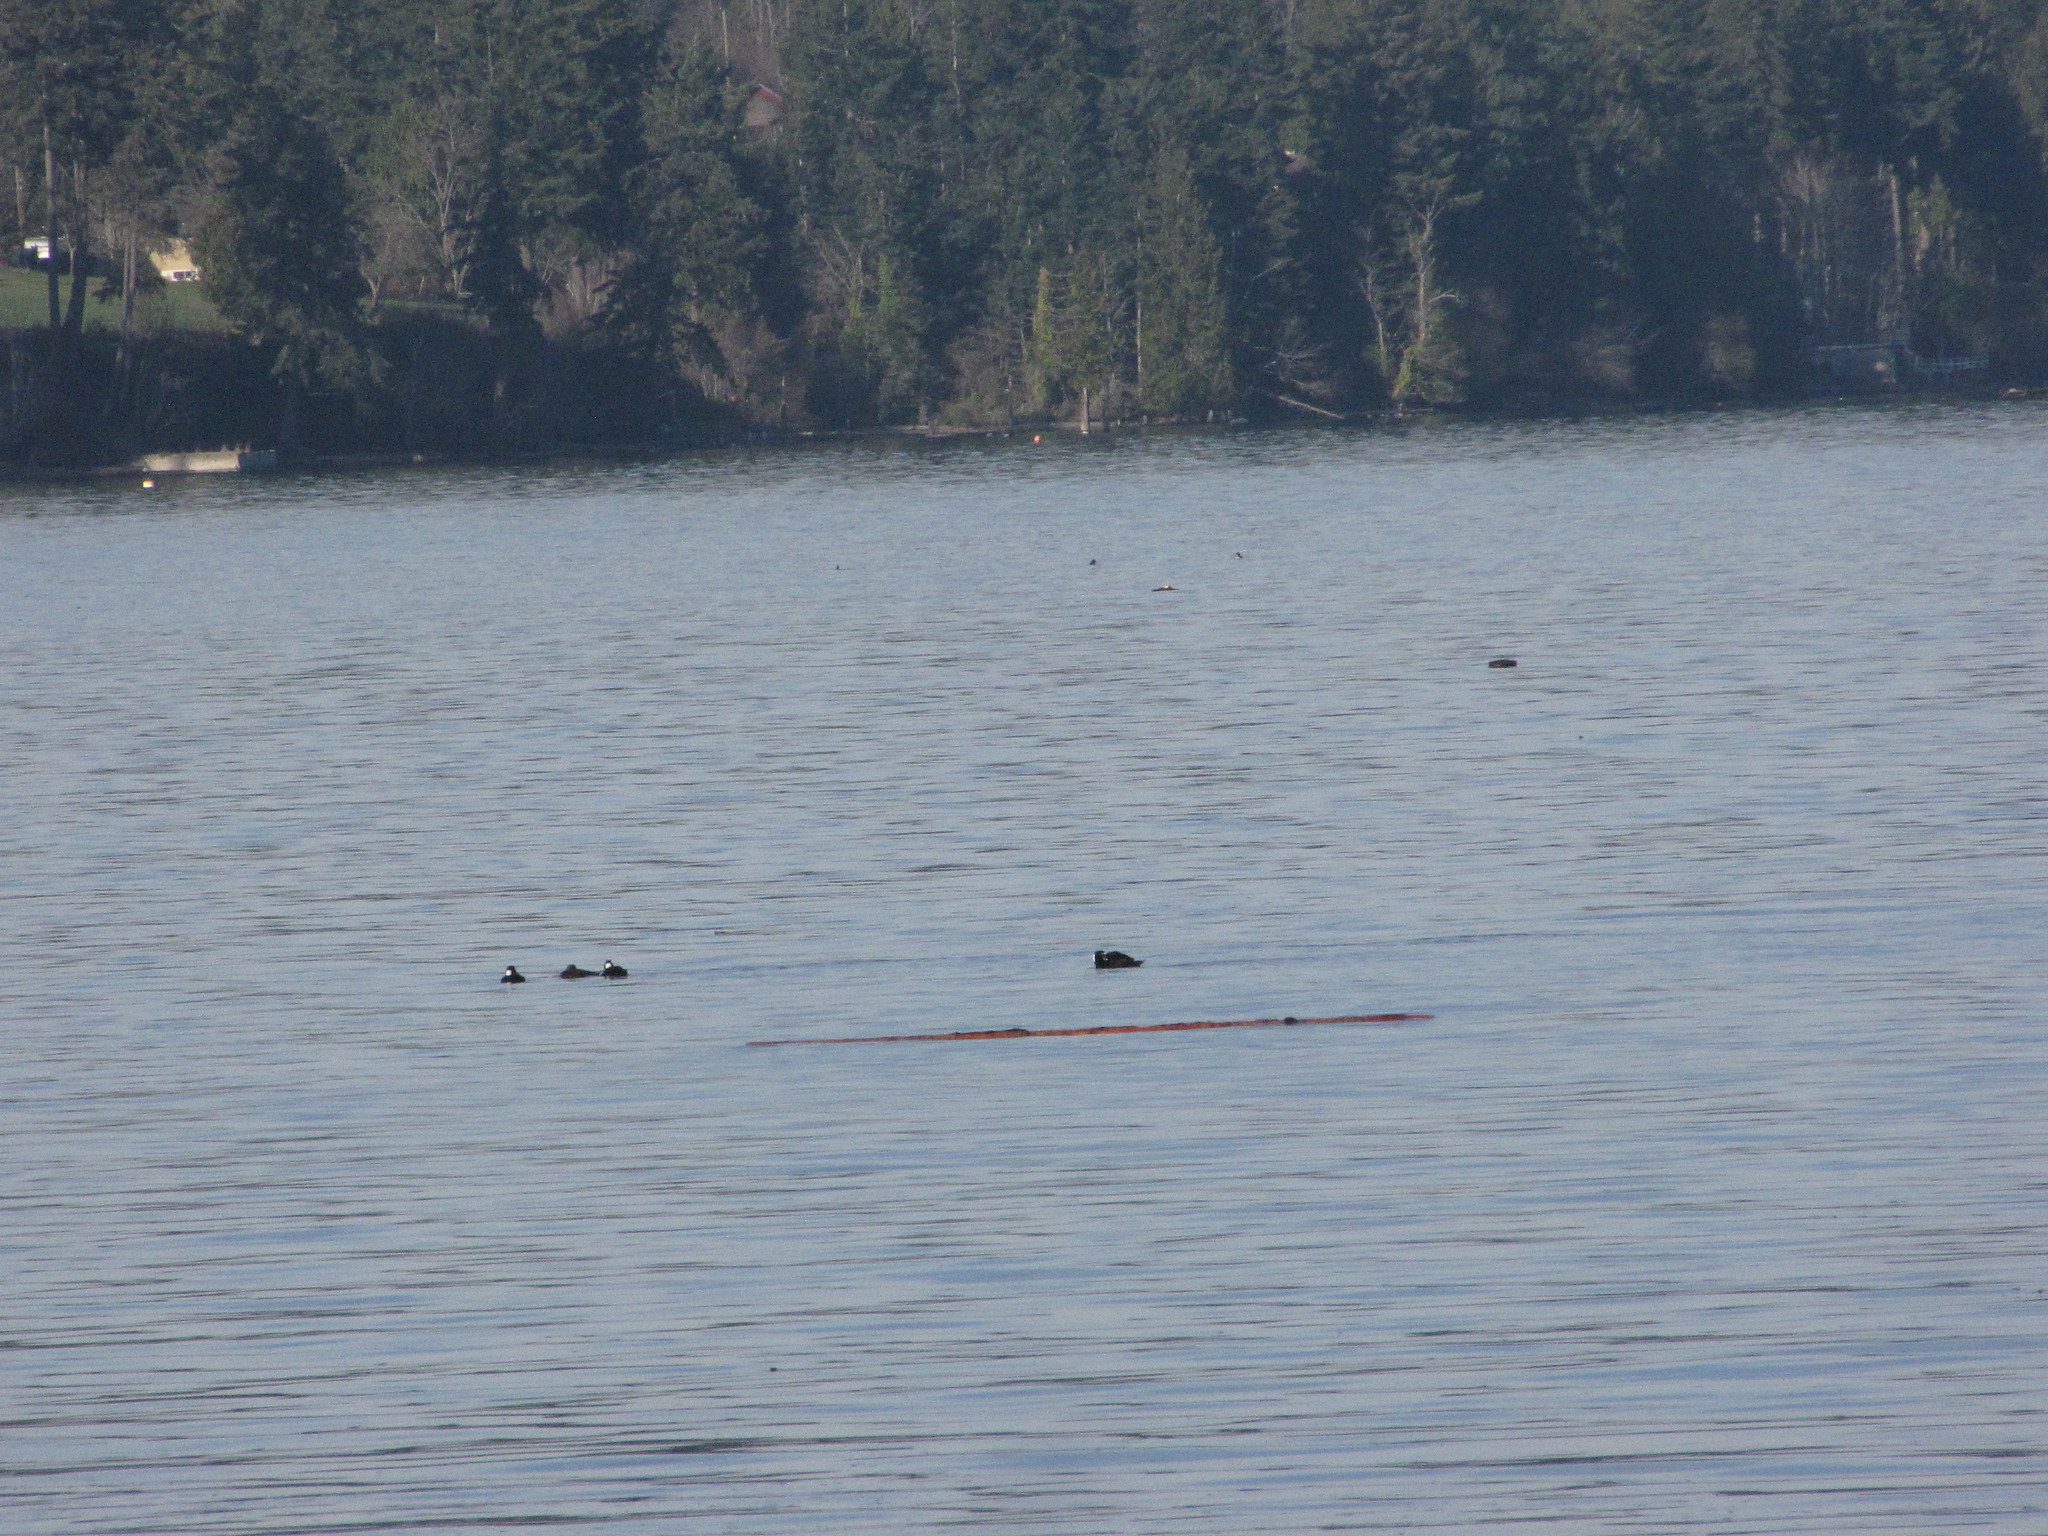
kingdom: Animalia
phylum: Chordata
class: Aves
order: Anseriformes
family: Anatidae
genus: Melanitta
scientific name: Melanitta perspicillata
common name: Surf scoter
